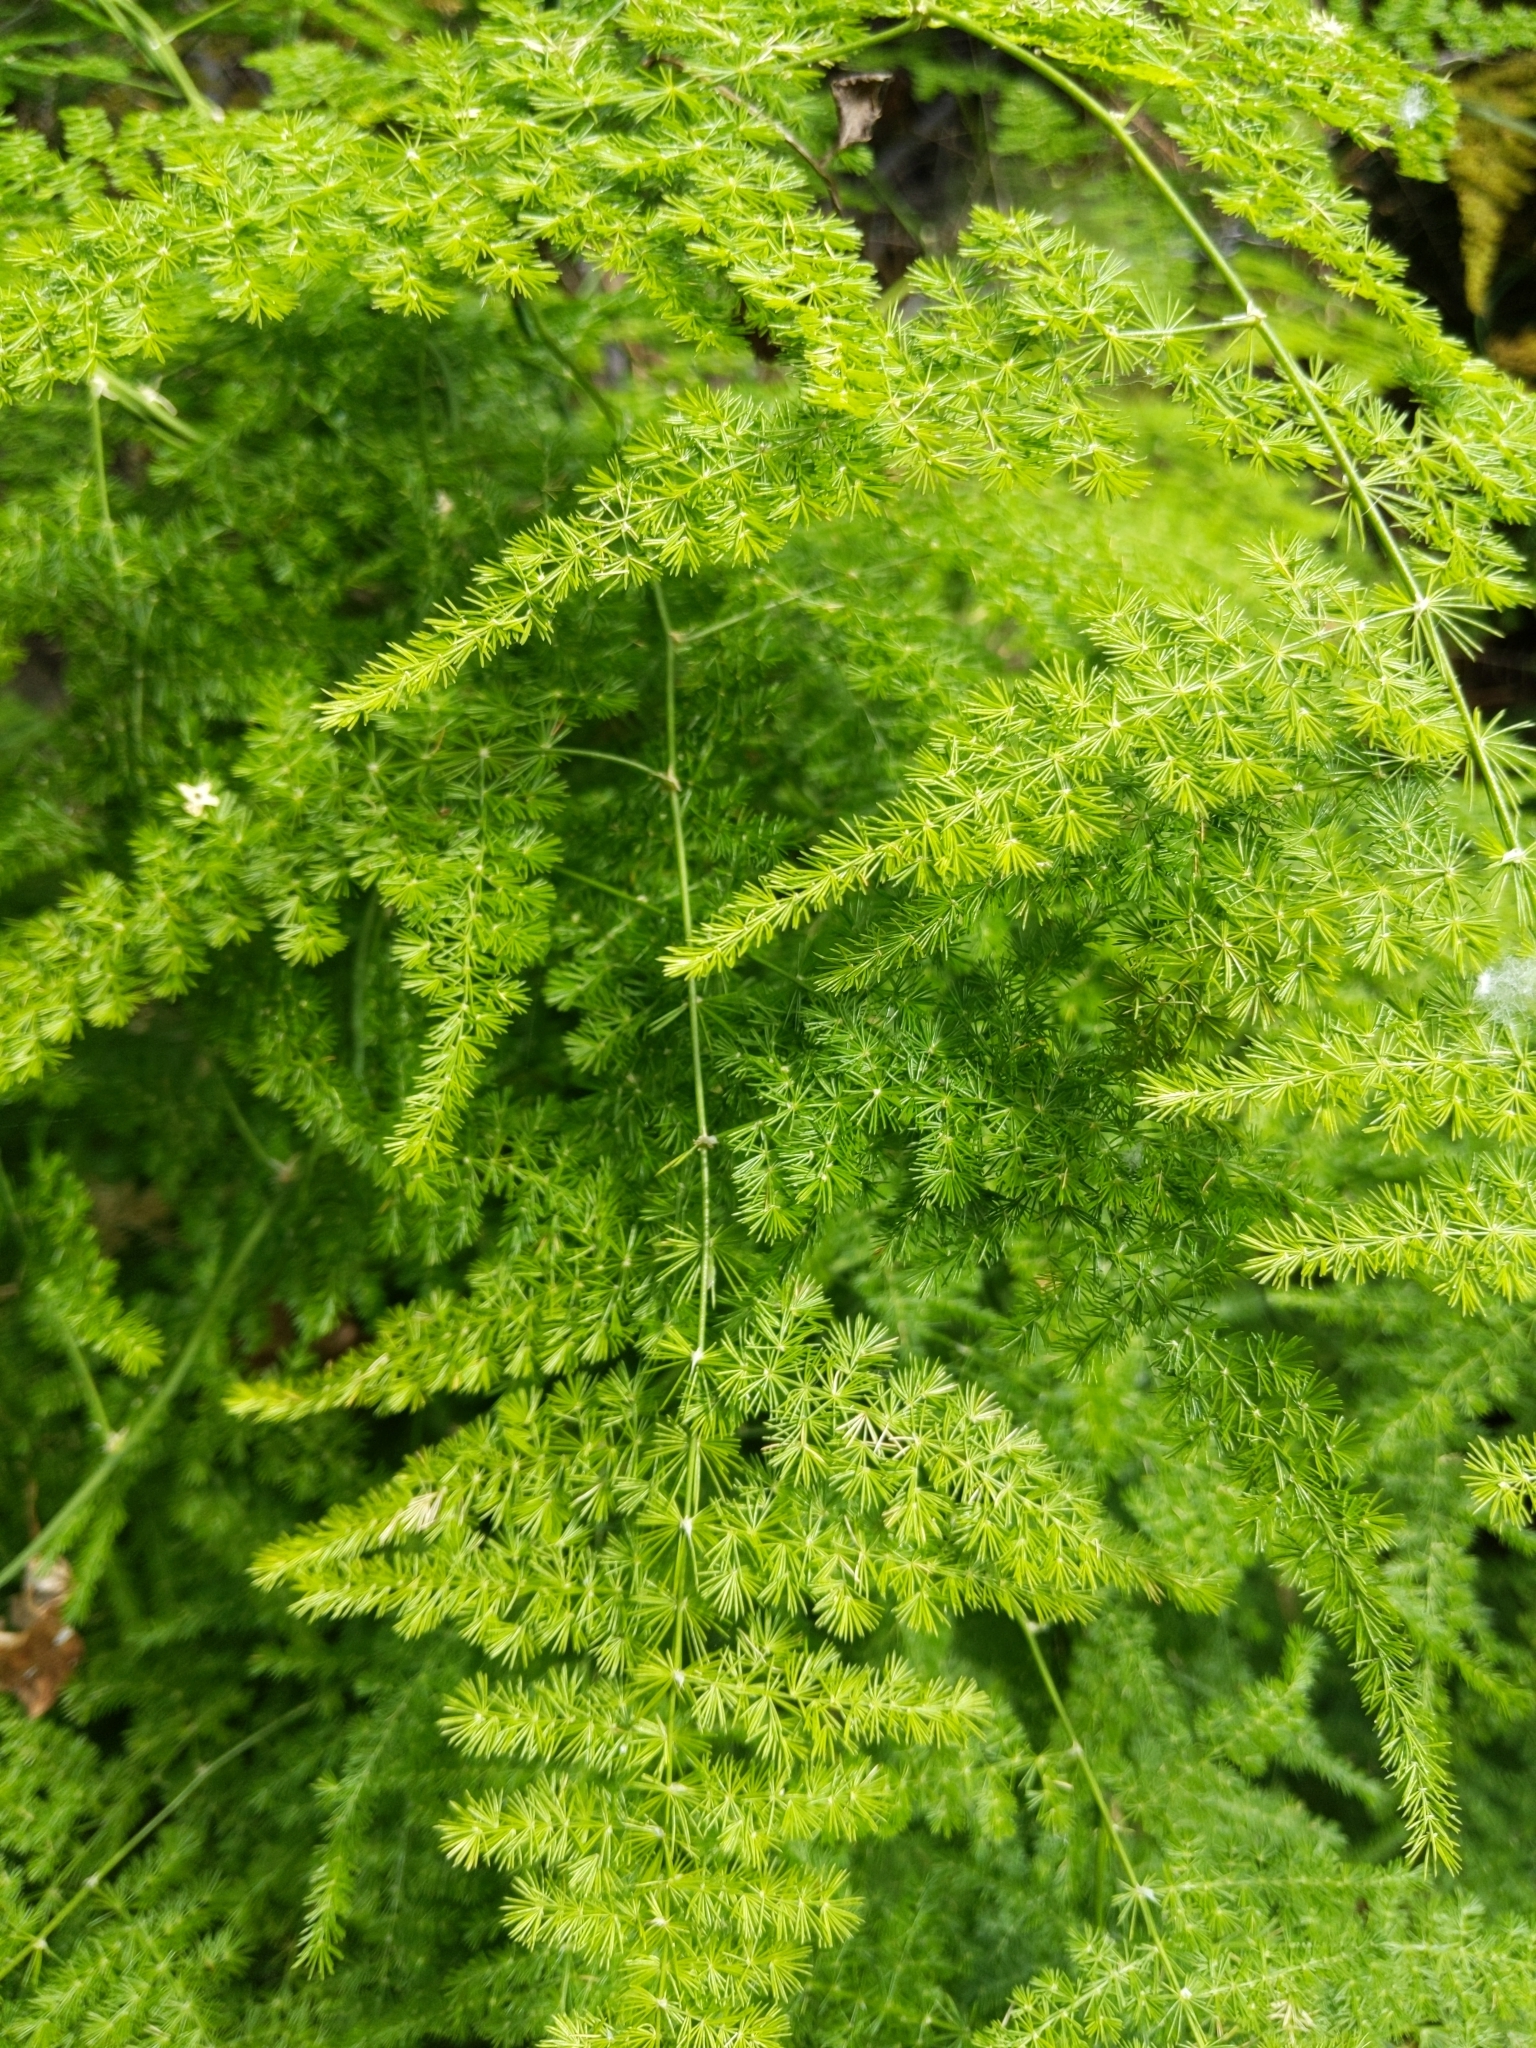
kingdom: Plantae
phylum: Tracheophyta
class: Liliopsida
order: Asparagales
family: Asparagaceae
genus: Asparagus
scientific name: Asparagus setaceus
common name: Common asparagus fern
